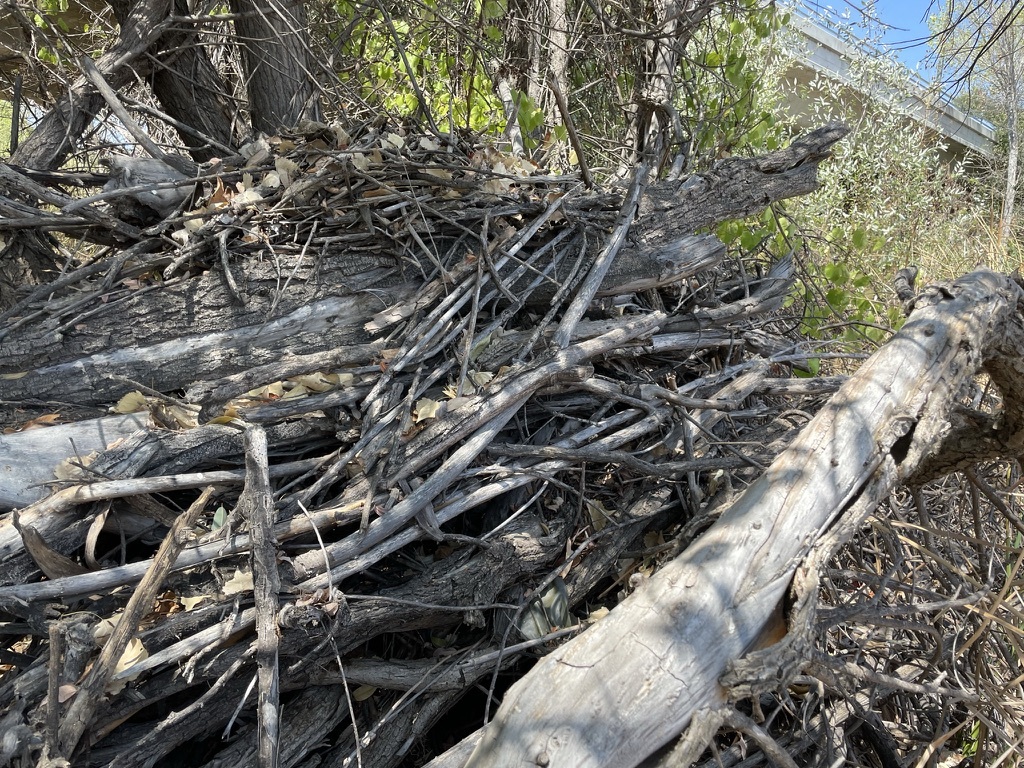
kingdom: Animalia
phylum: Chordata
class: Mammalia
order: Rodentia
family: Cricetidae
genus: Neotoma
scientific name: Neotoma fuscipes
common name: Dusky-footed woodrat
